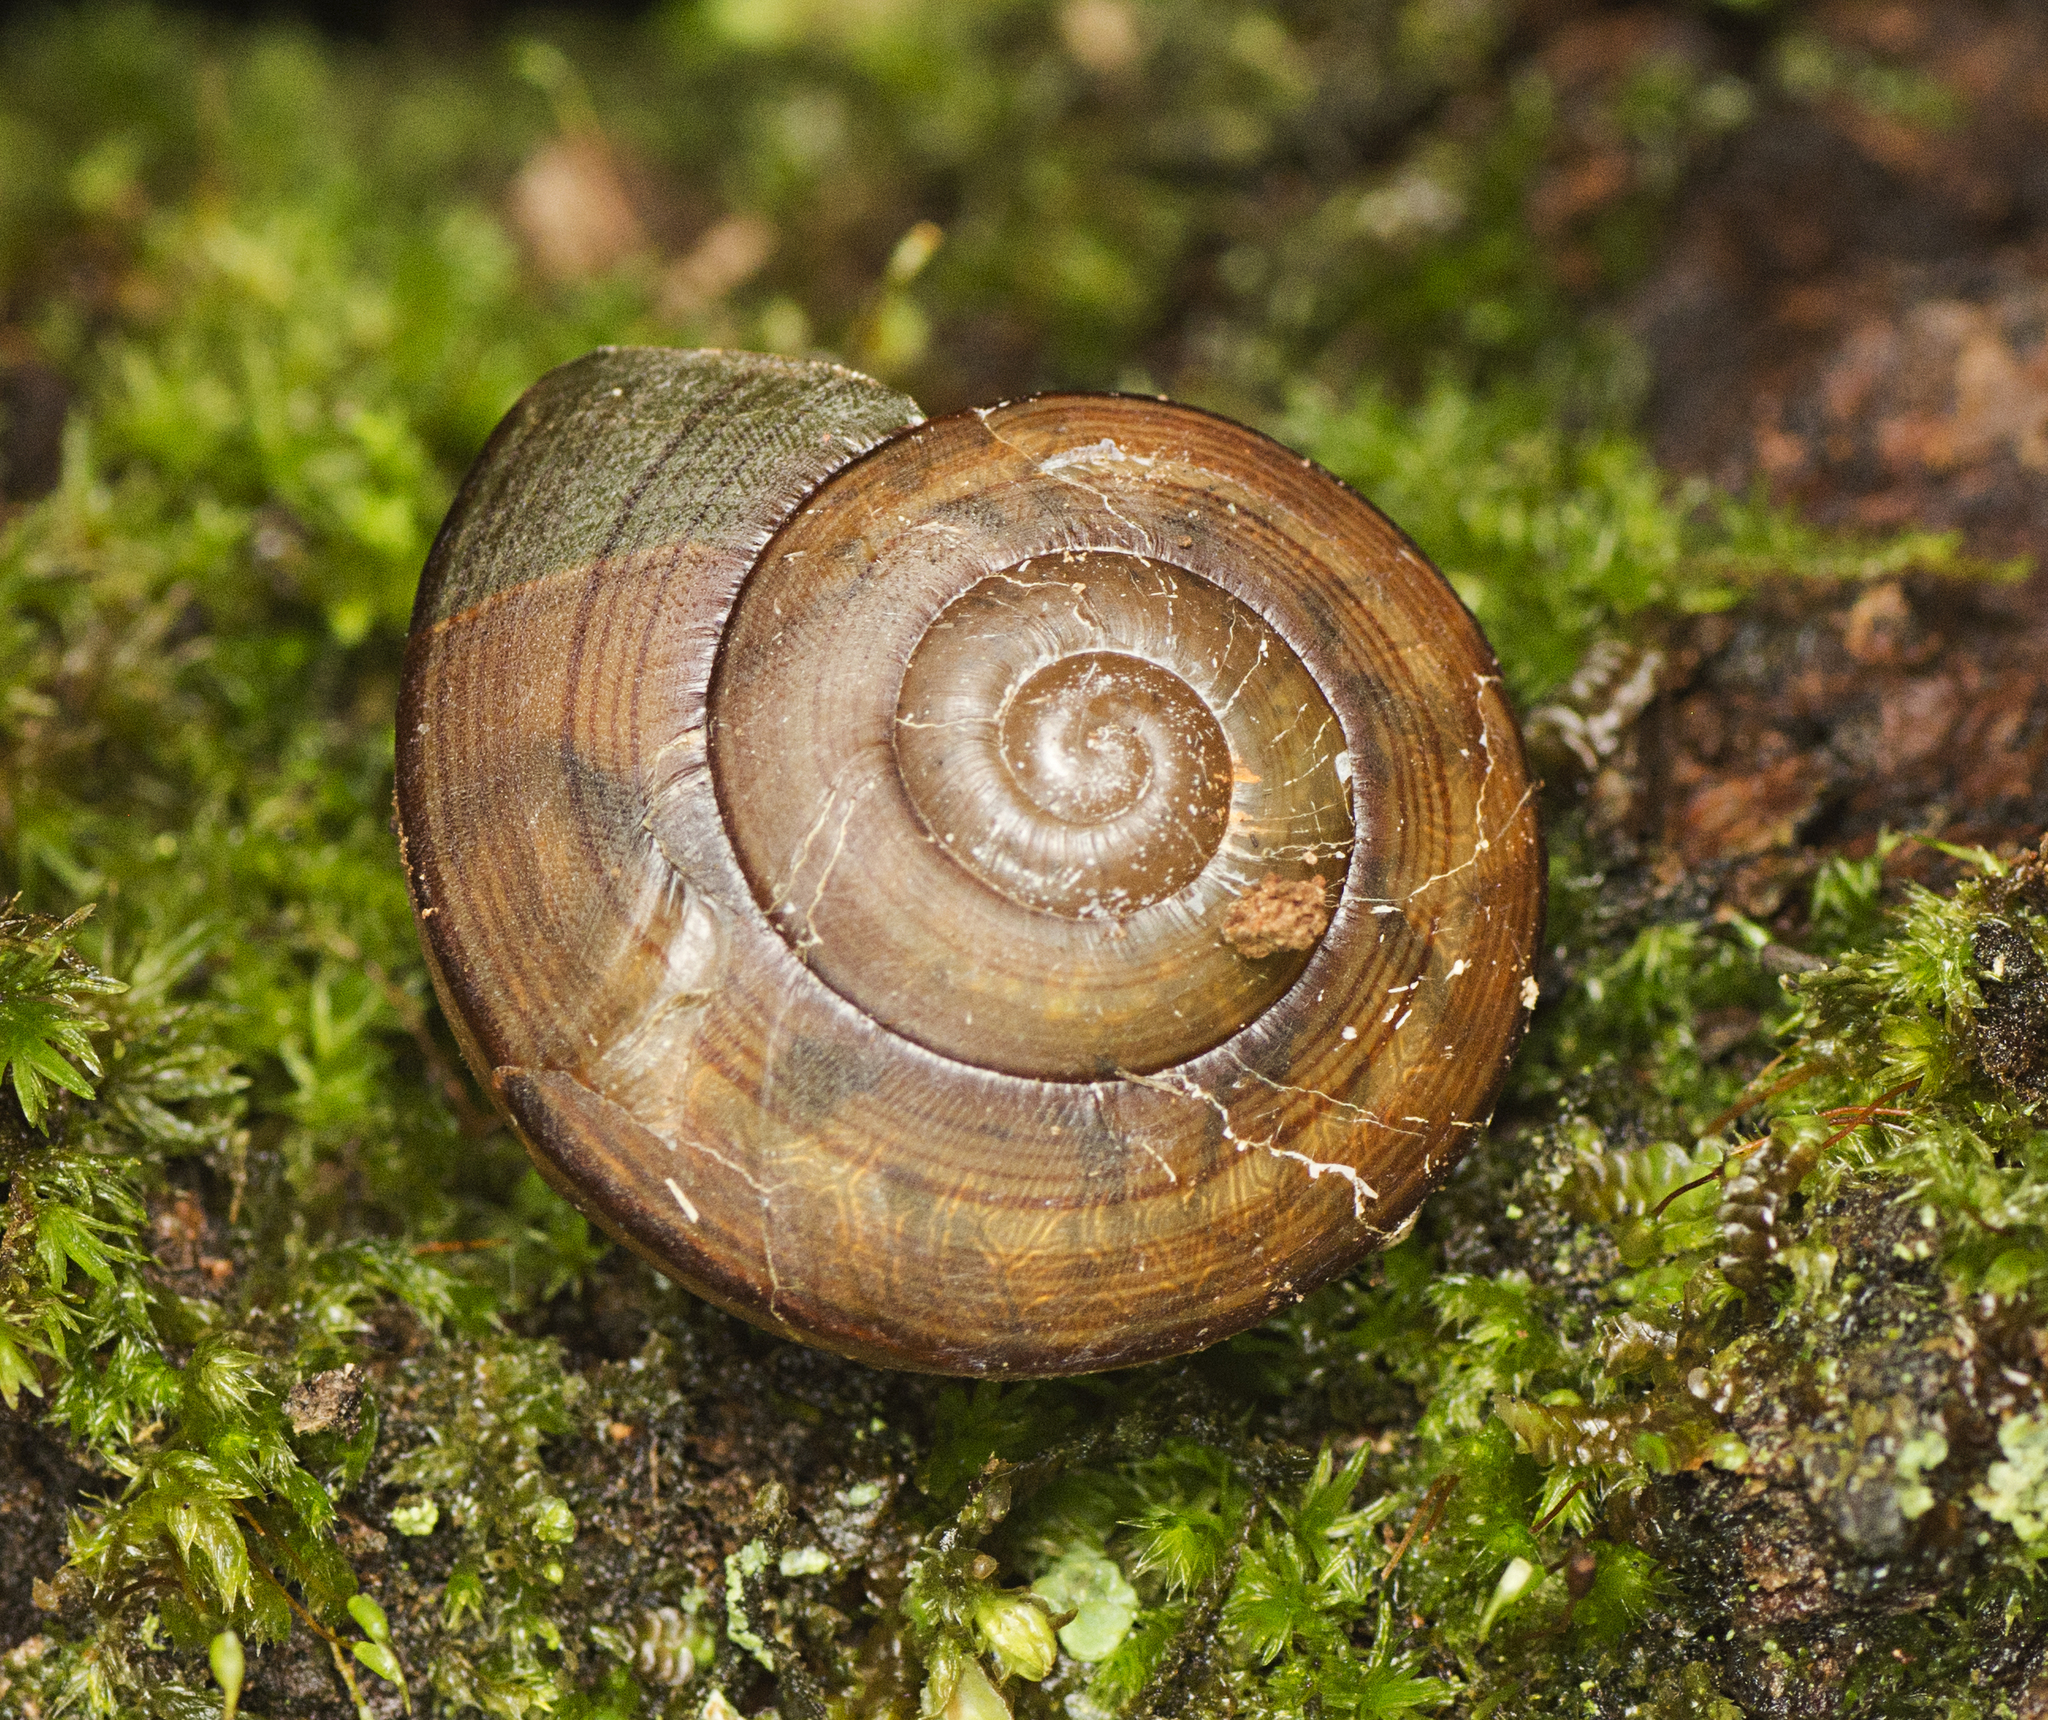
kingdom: Animalia
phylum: Mollusca
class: Gastropoda
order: Stylommatophora
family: Camaenidae
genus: Sphaerospira
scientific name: Sphaerospira fraseri
